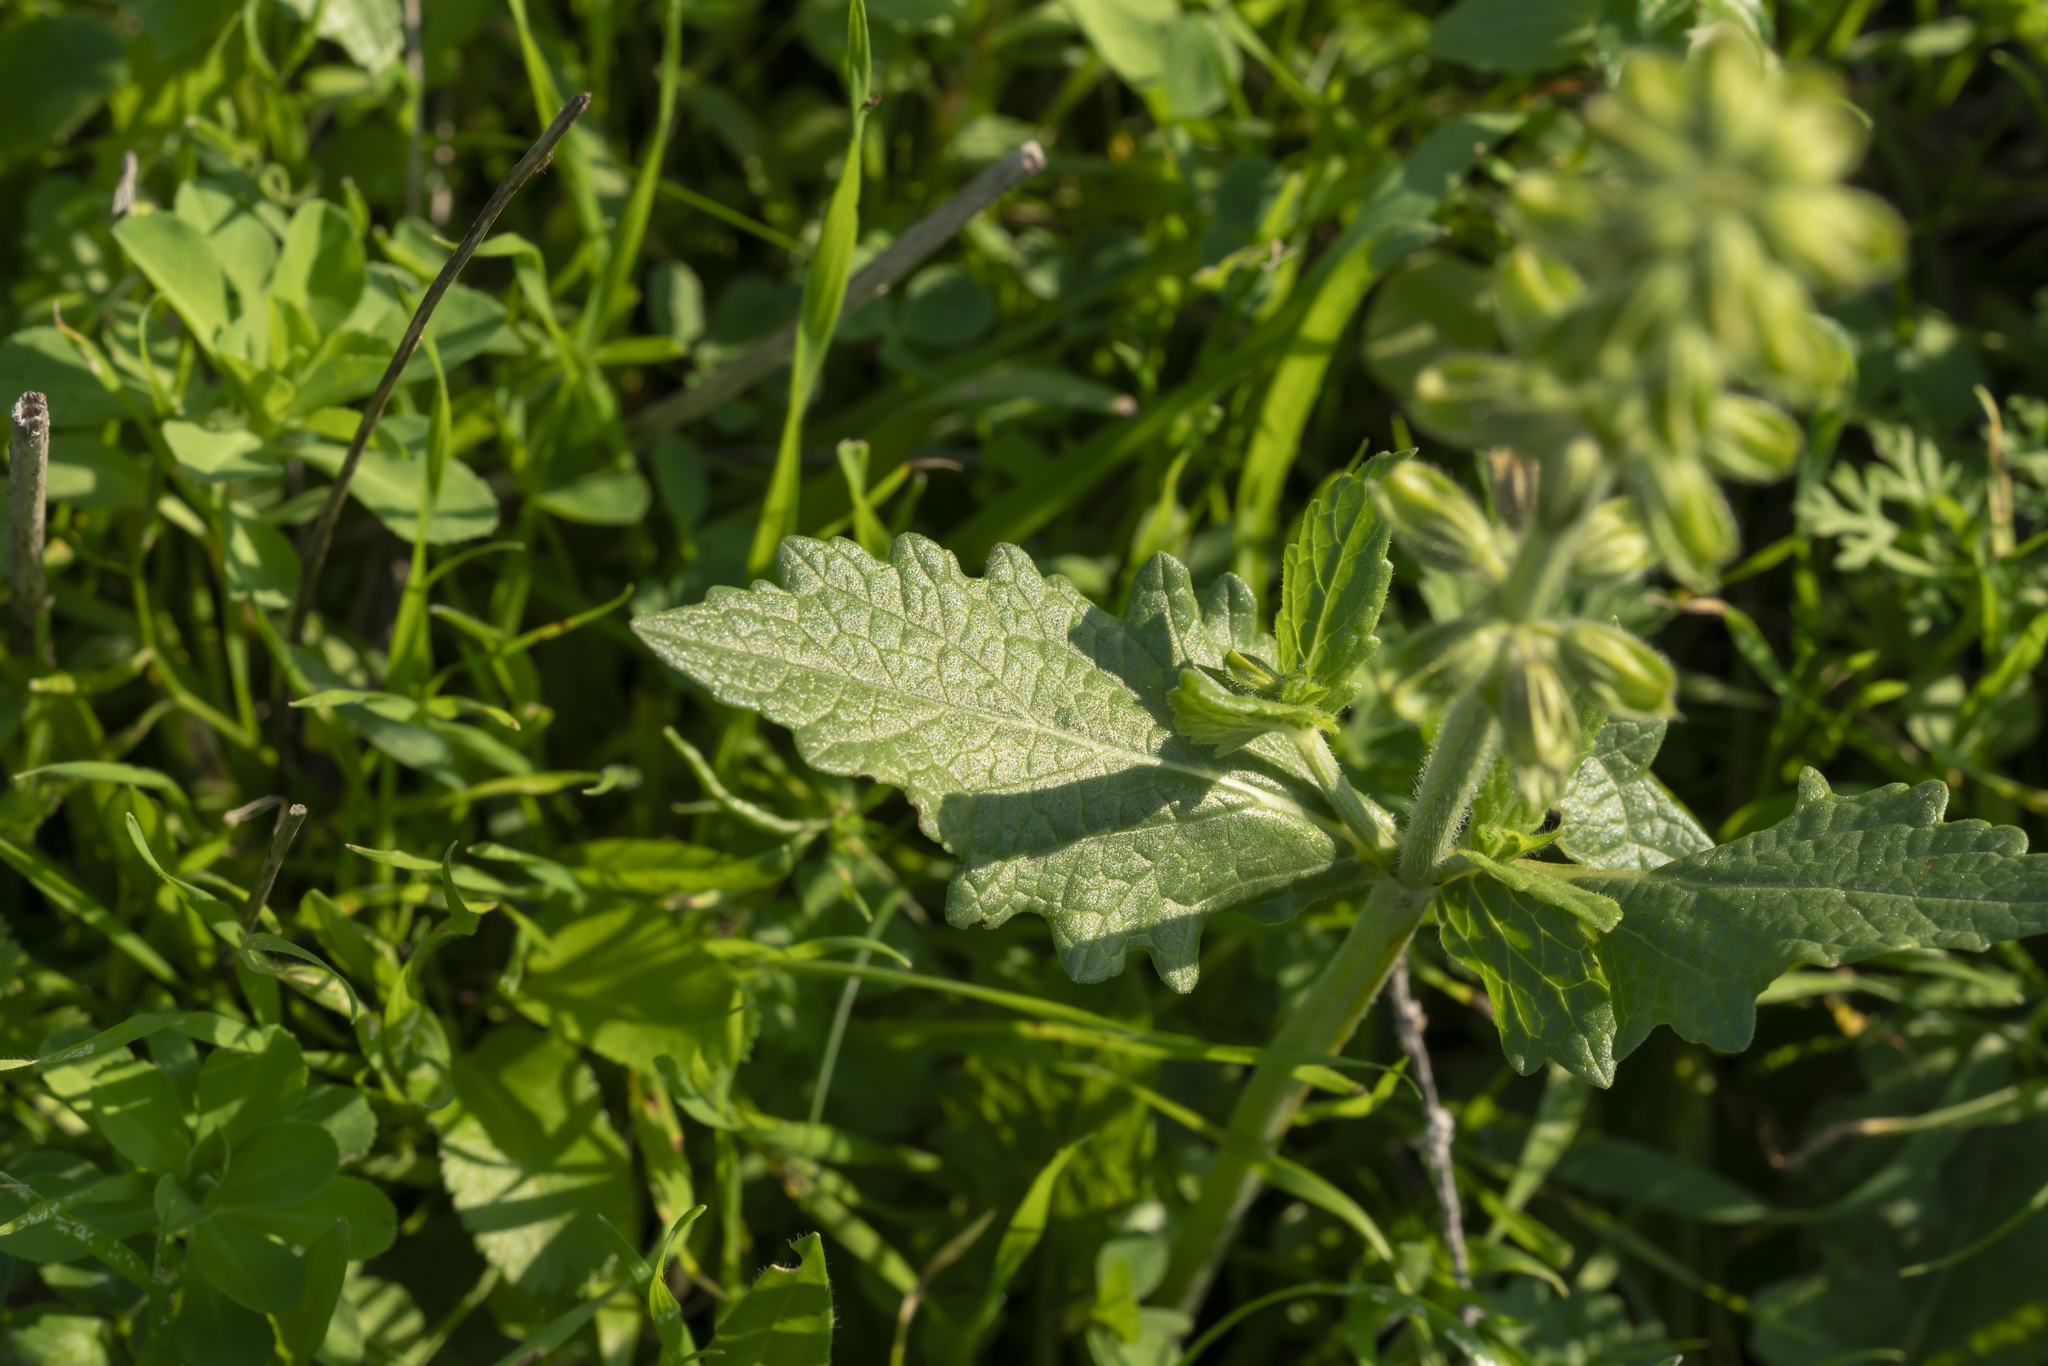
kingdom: Plantae
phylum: Tracheophyta
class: Magnoliopsida
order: Lamiales
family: Lamiaceae
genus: Salvia
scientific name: Salvia verbenaca
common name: Wild clary
